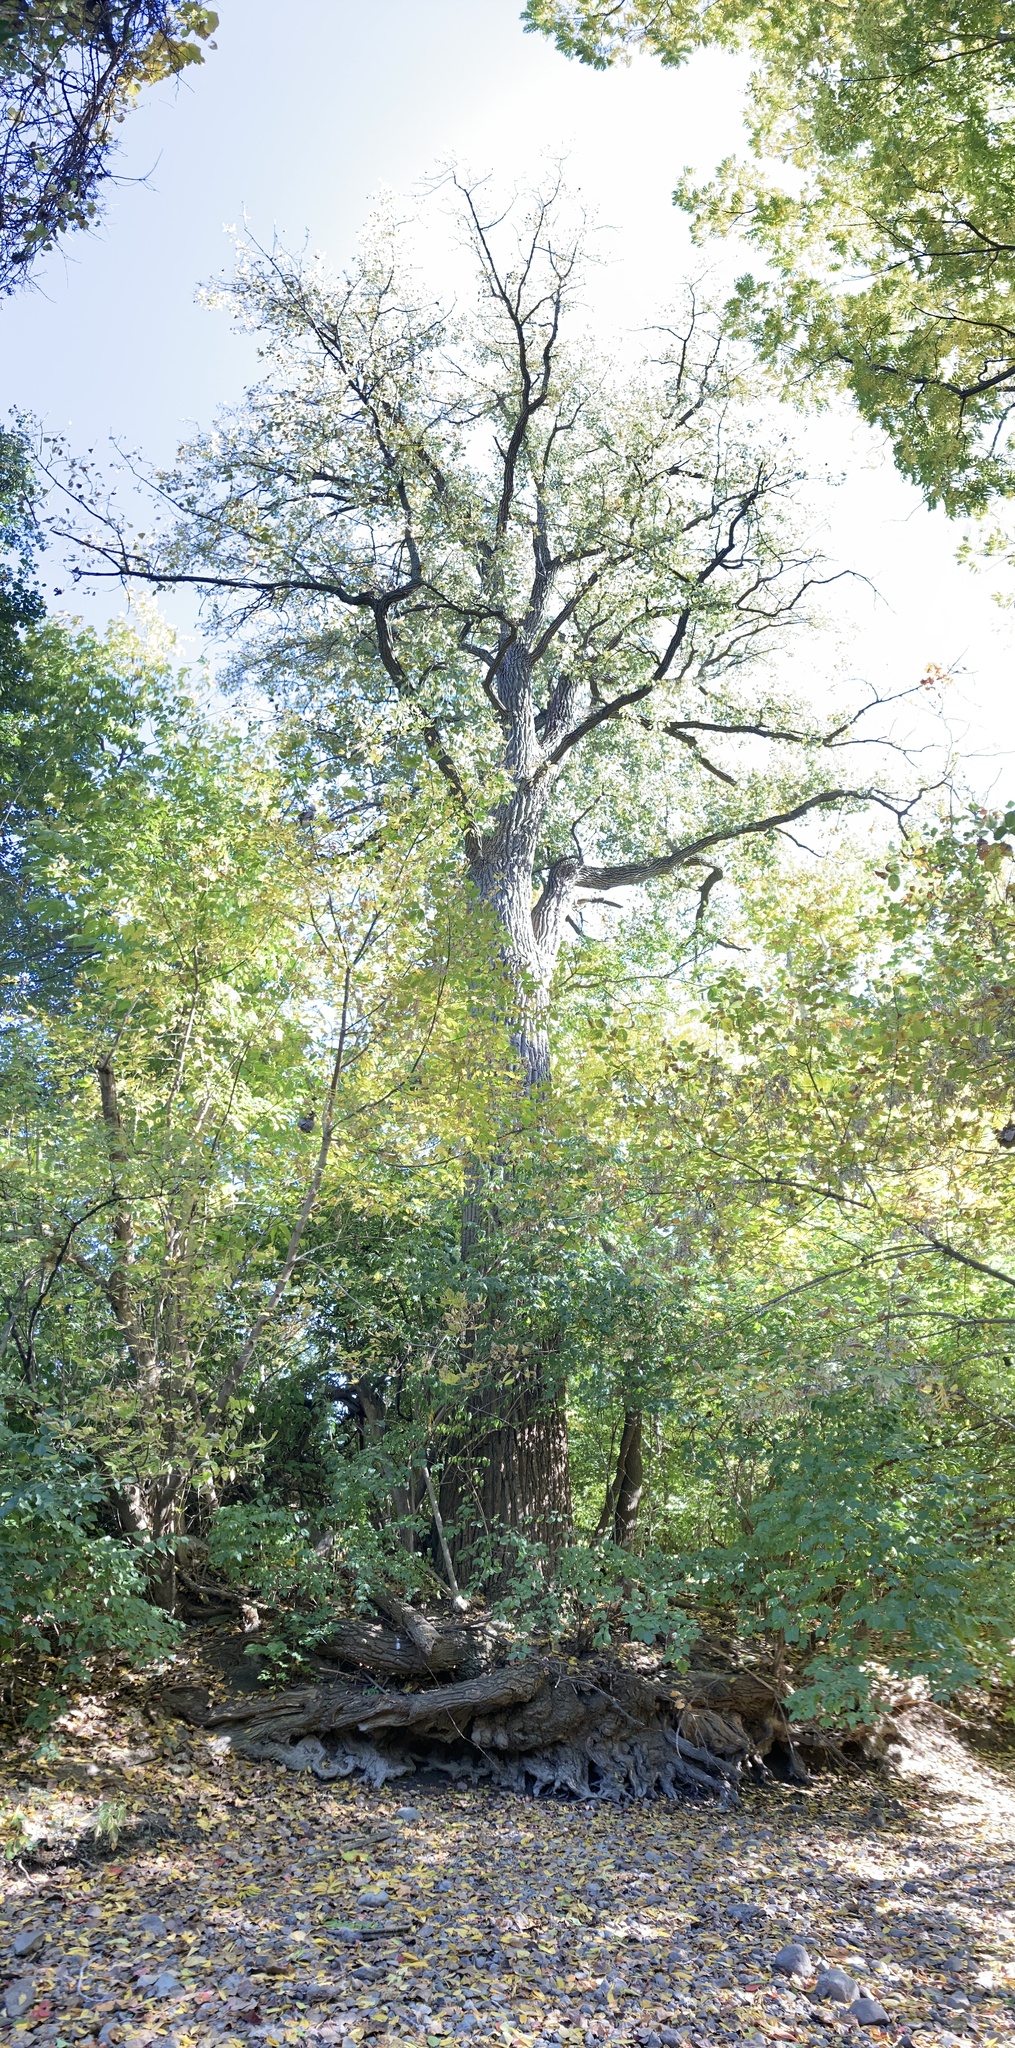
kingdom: Plantae
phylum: Tracheophyta
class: Magnoliopsida
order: Malpighiales
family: Salicaceae
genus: Populus
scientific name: Populus deltoides
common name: Eastern cottonwood
